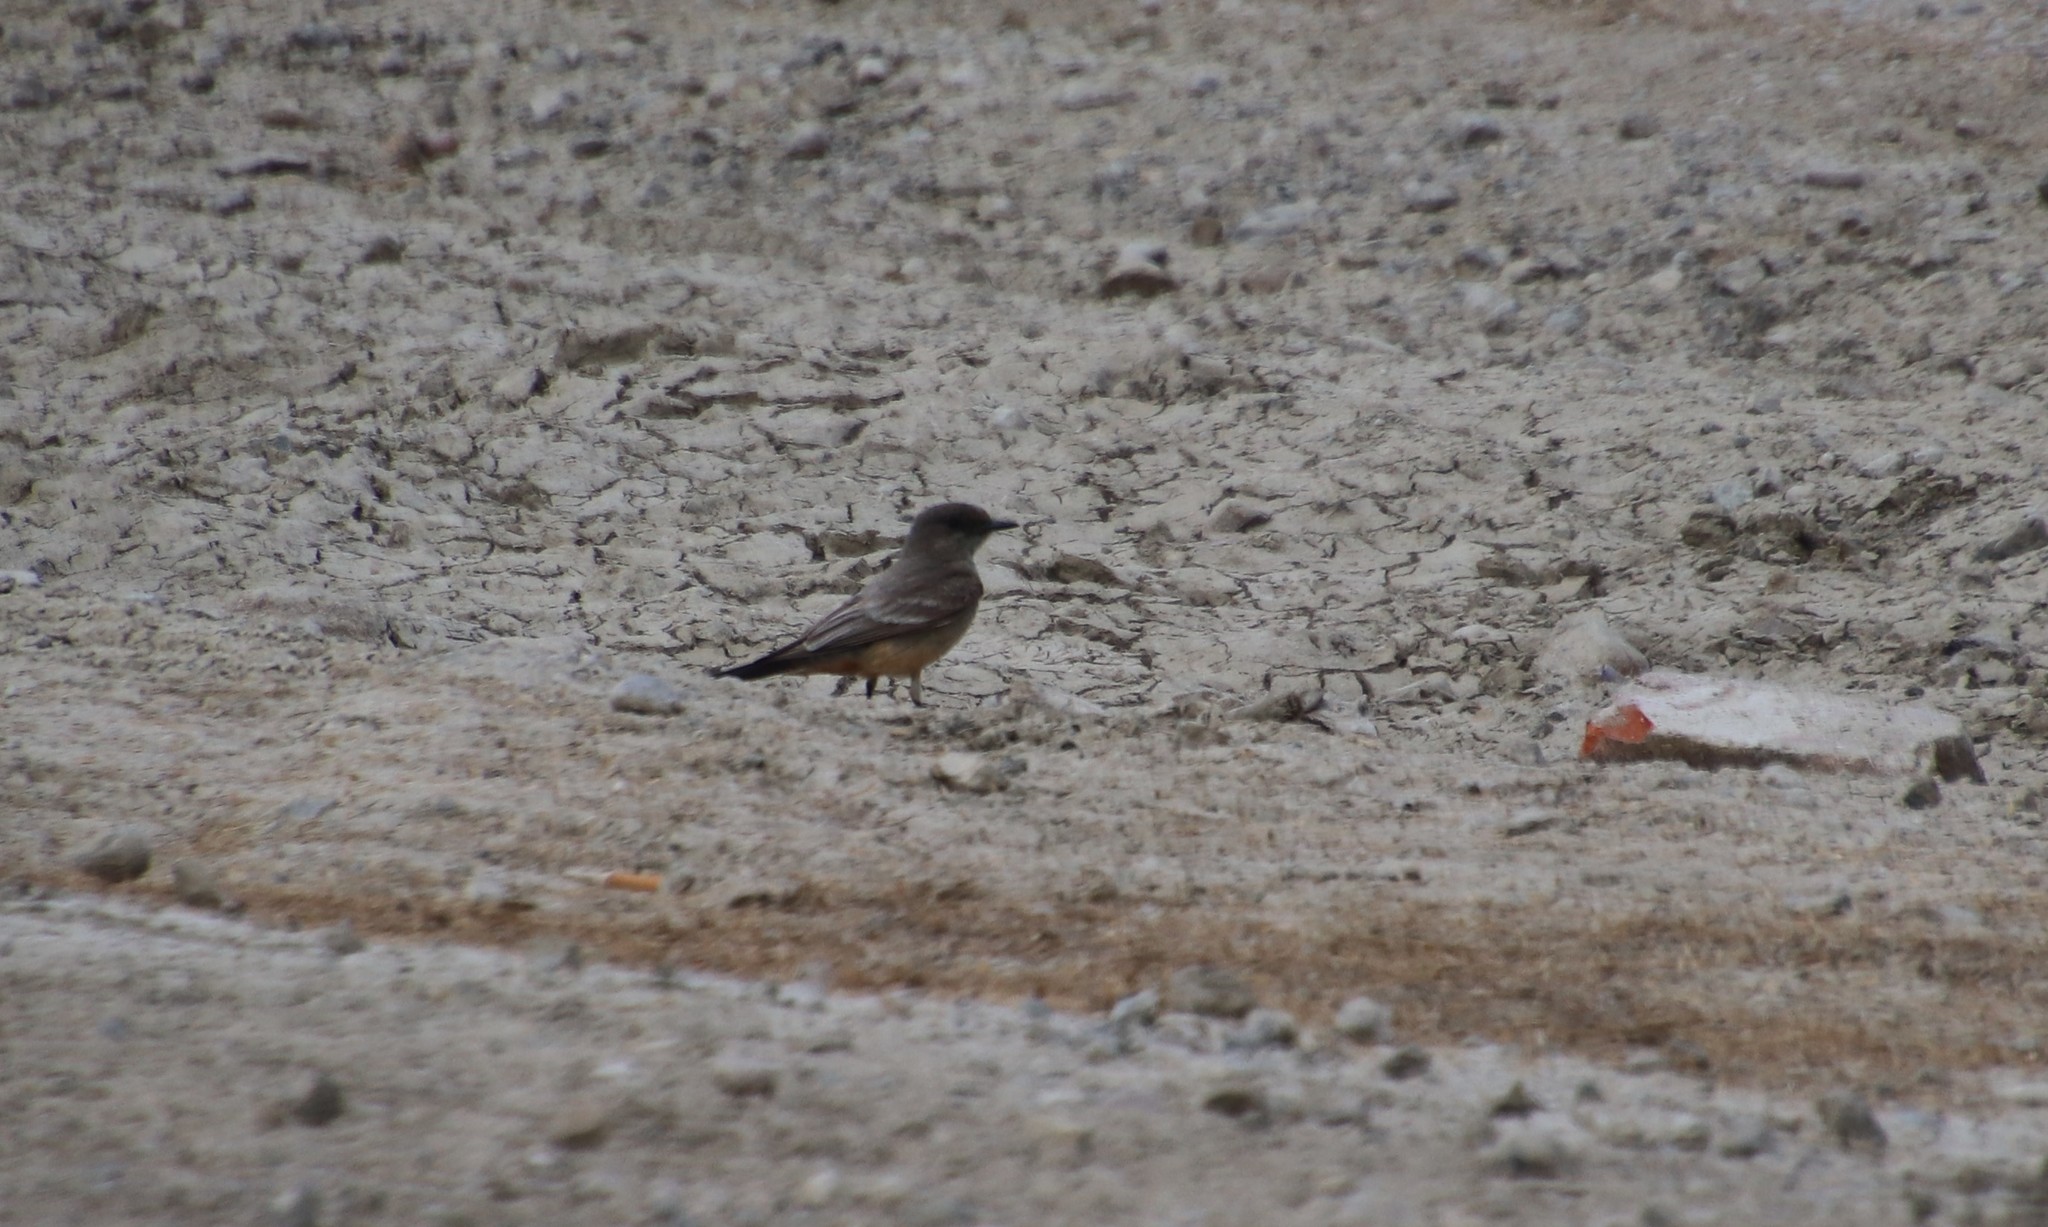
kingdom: Animalia
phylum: Chordata
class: Aves
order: Passeriformes
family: Tyrannidae
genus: Sayornis
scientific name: Sayornis saya
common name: Say's phoebe
